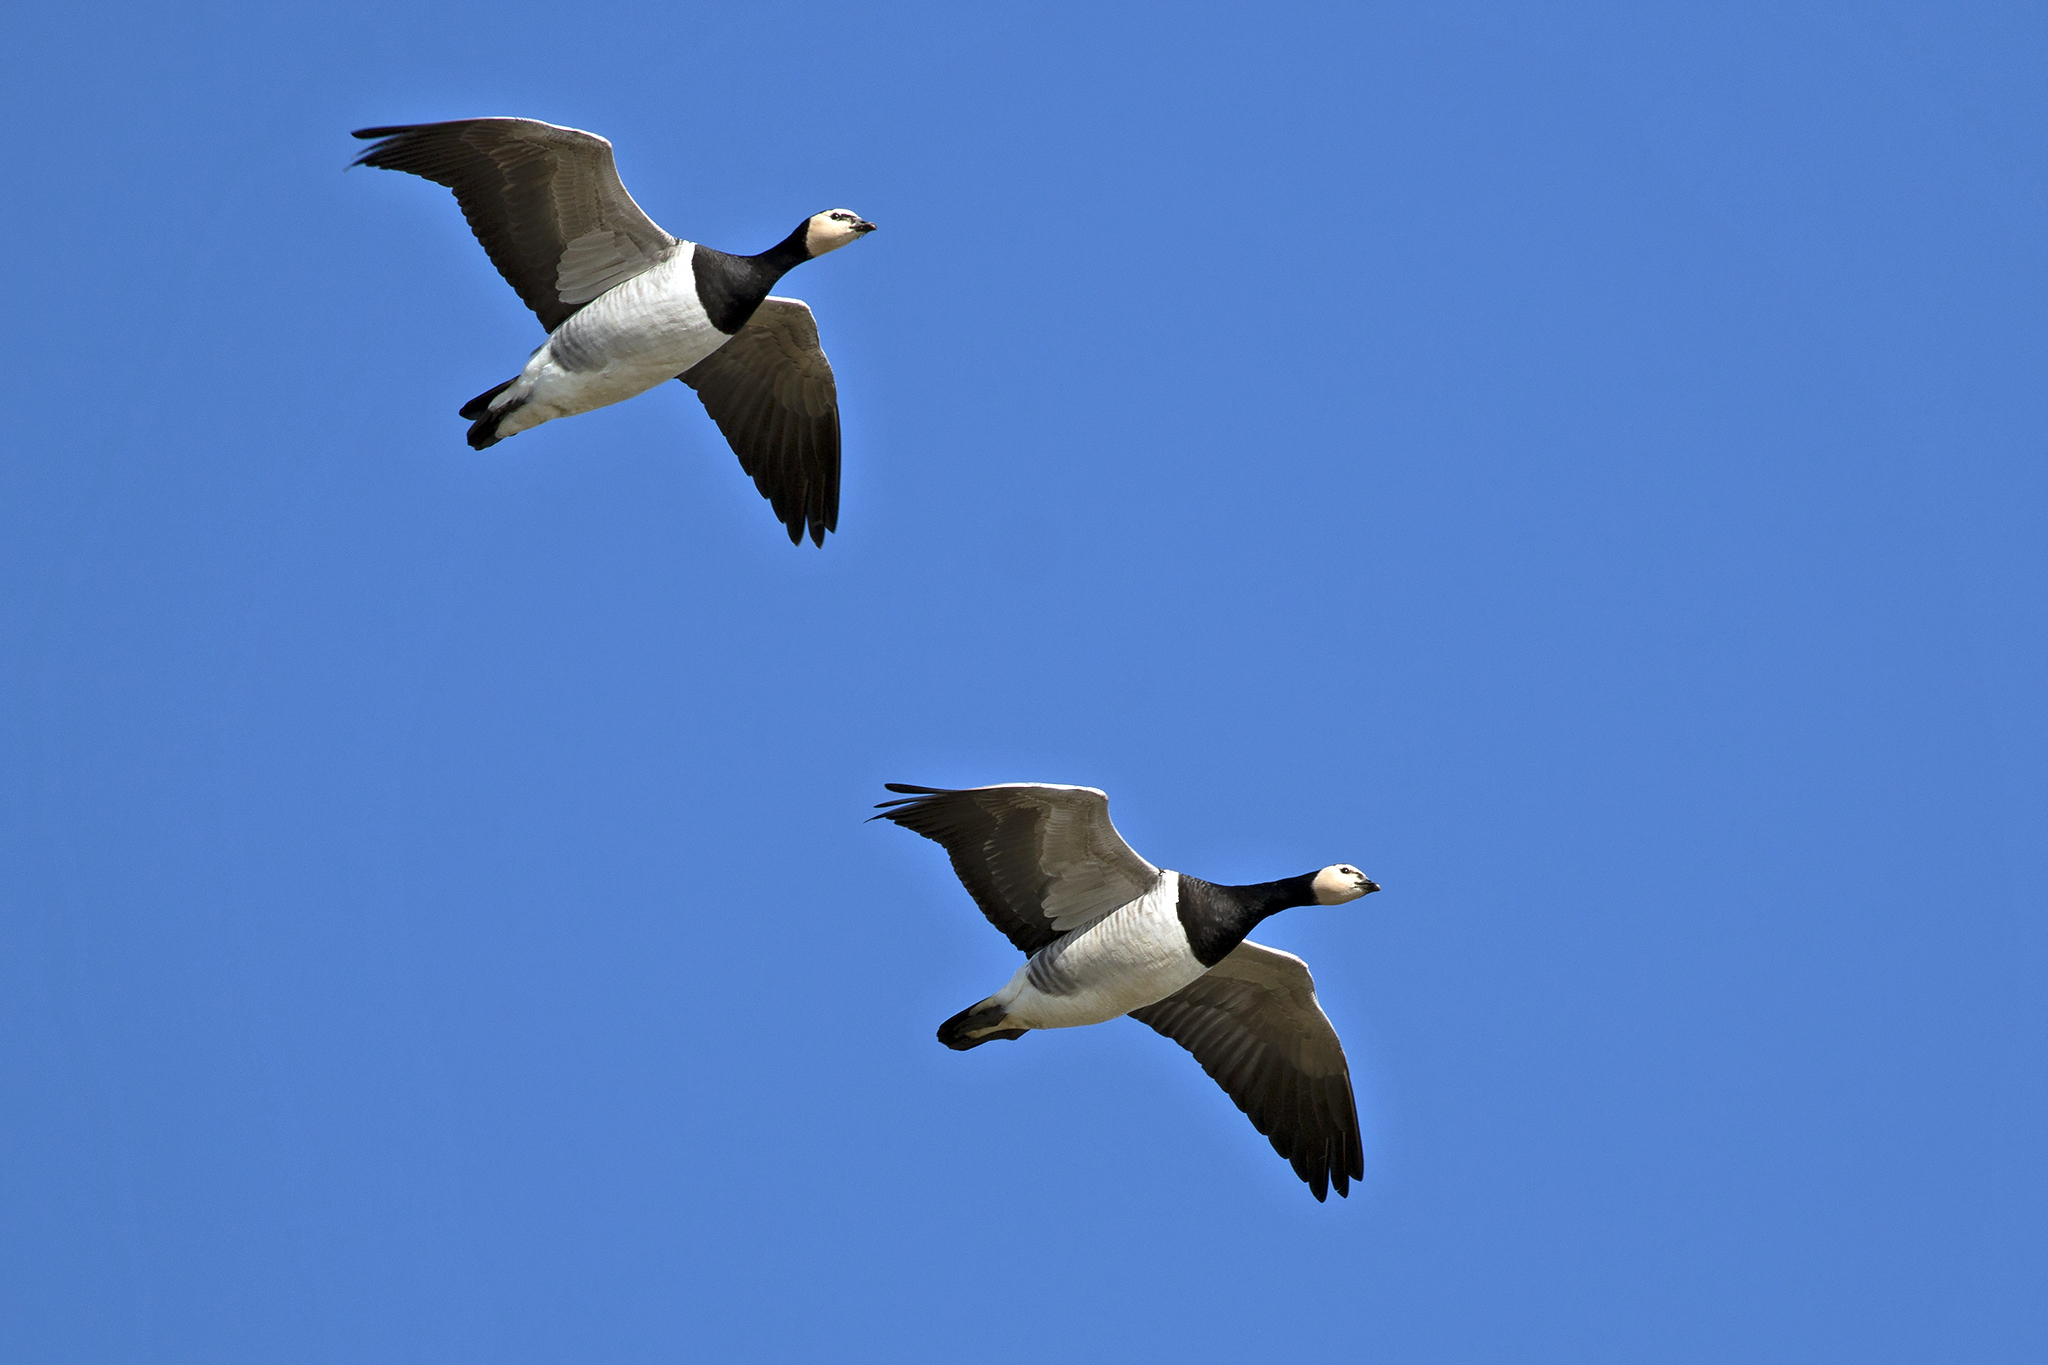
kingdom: Animalia
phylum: Chordata
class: Aves
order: Anseriformes
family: Anatidae
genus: Branta
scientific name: Branta leucopsis
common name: Barnacle goose
